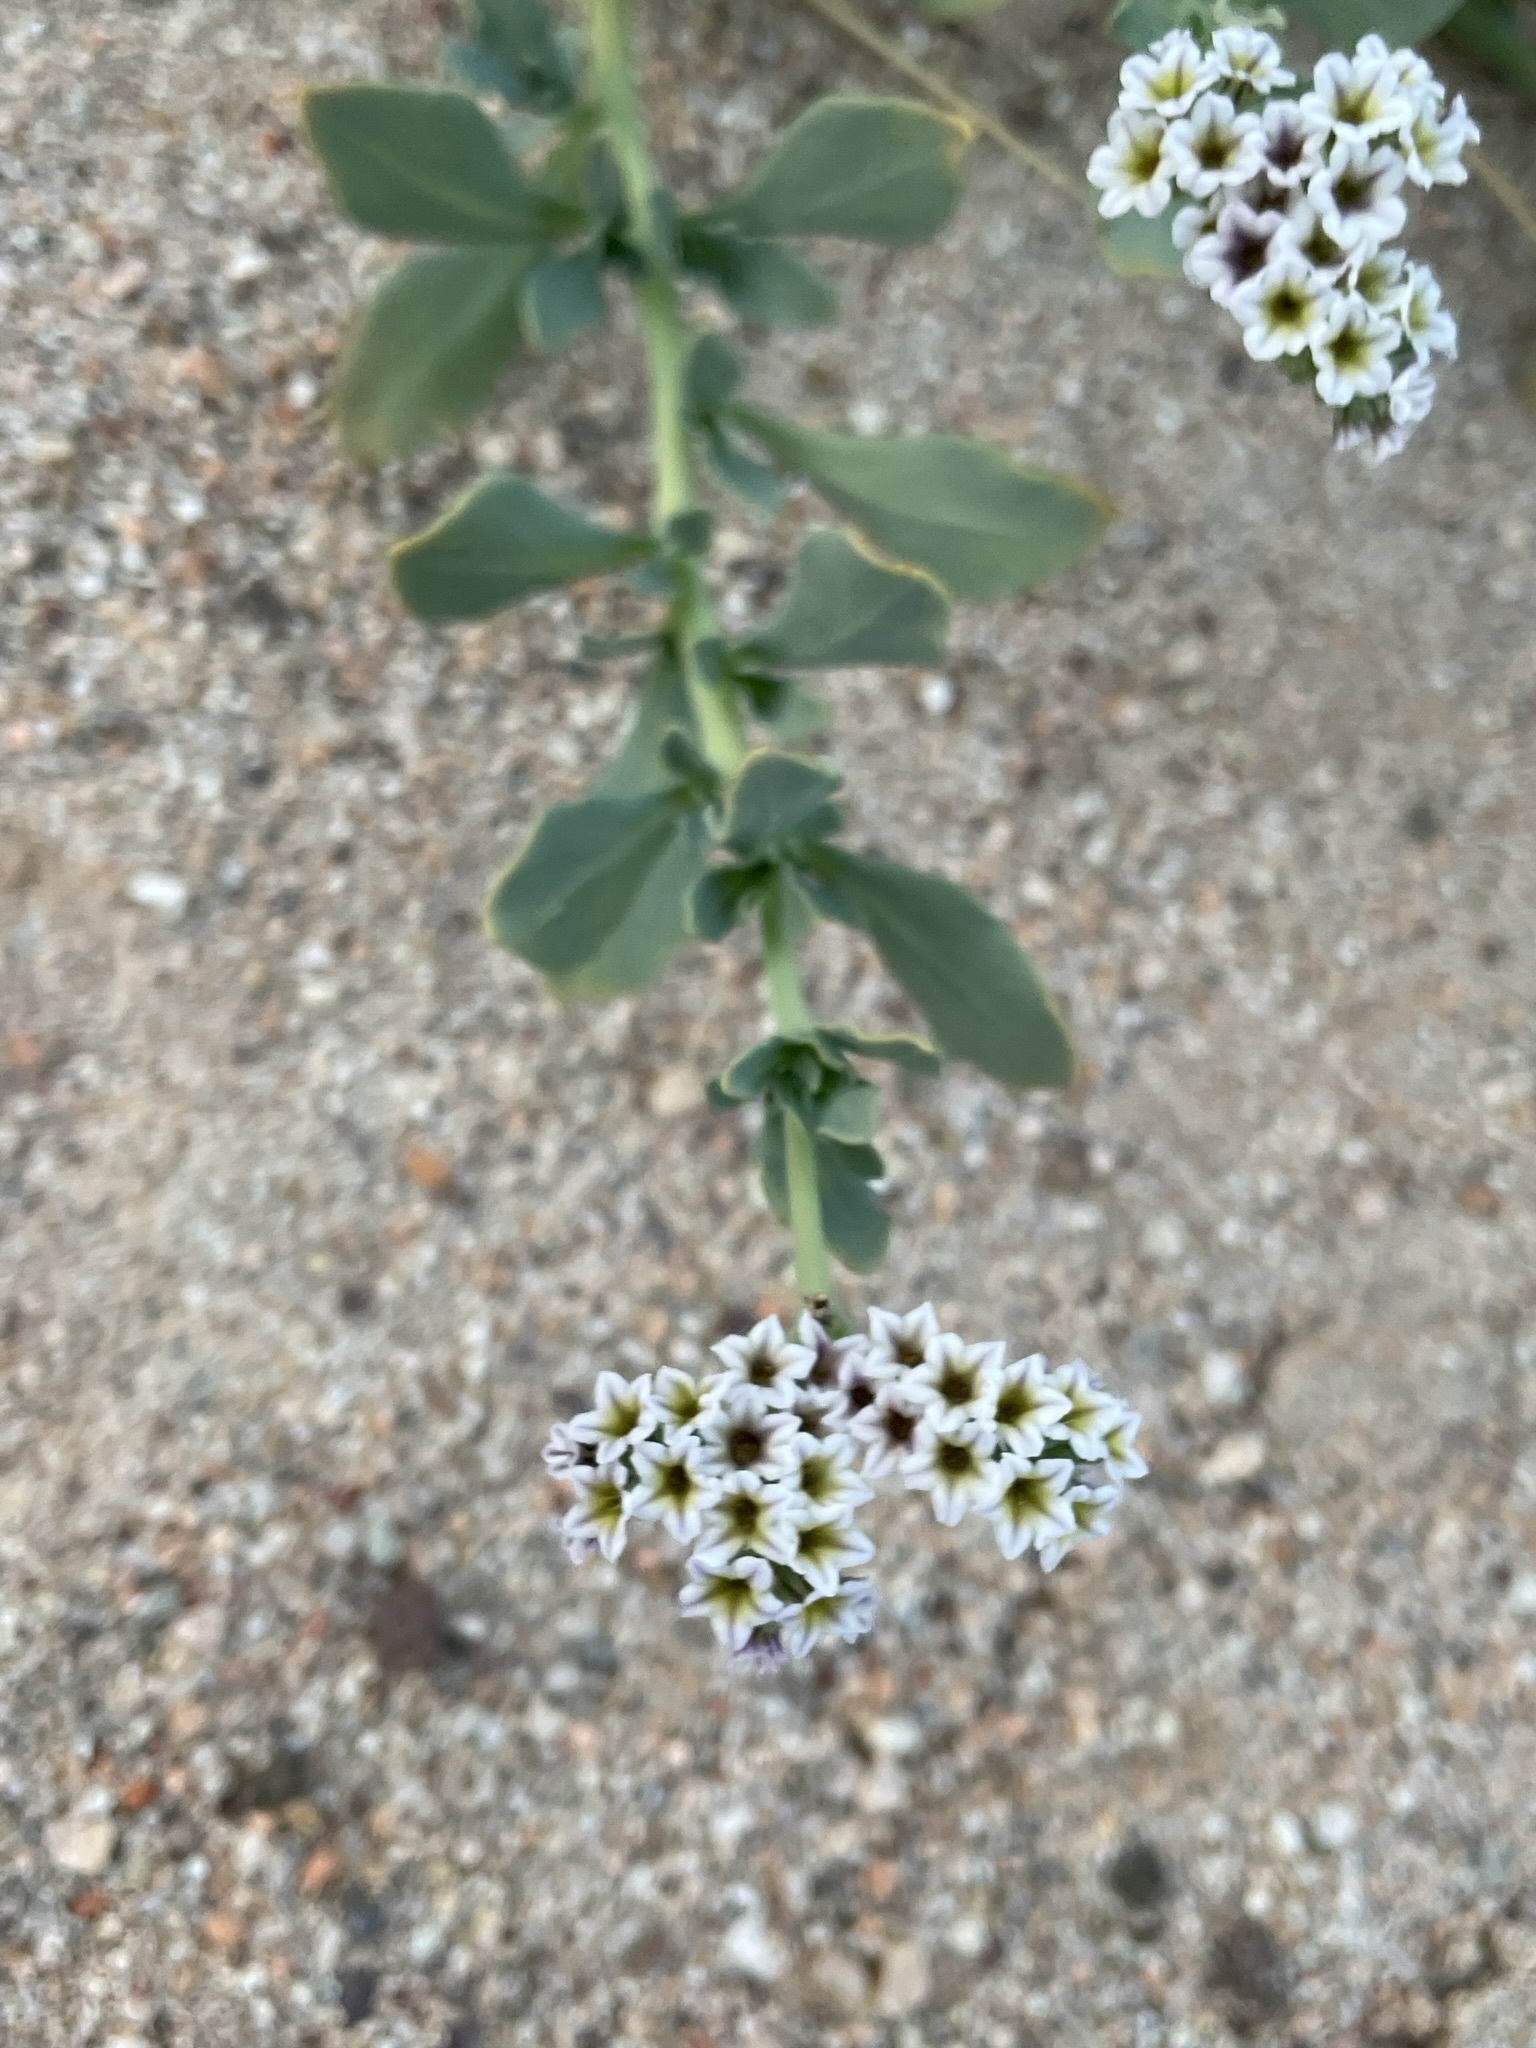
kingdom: Plantae
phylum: Tracheophyta
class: Magnoliopsida
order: Boraginales
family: Heliotropiaceae
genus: Heliotropium
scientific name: Heliotropium curassavicum
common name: Seaside heliotrope
